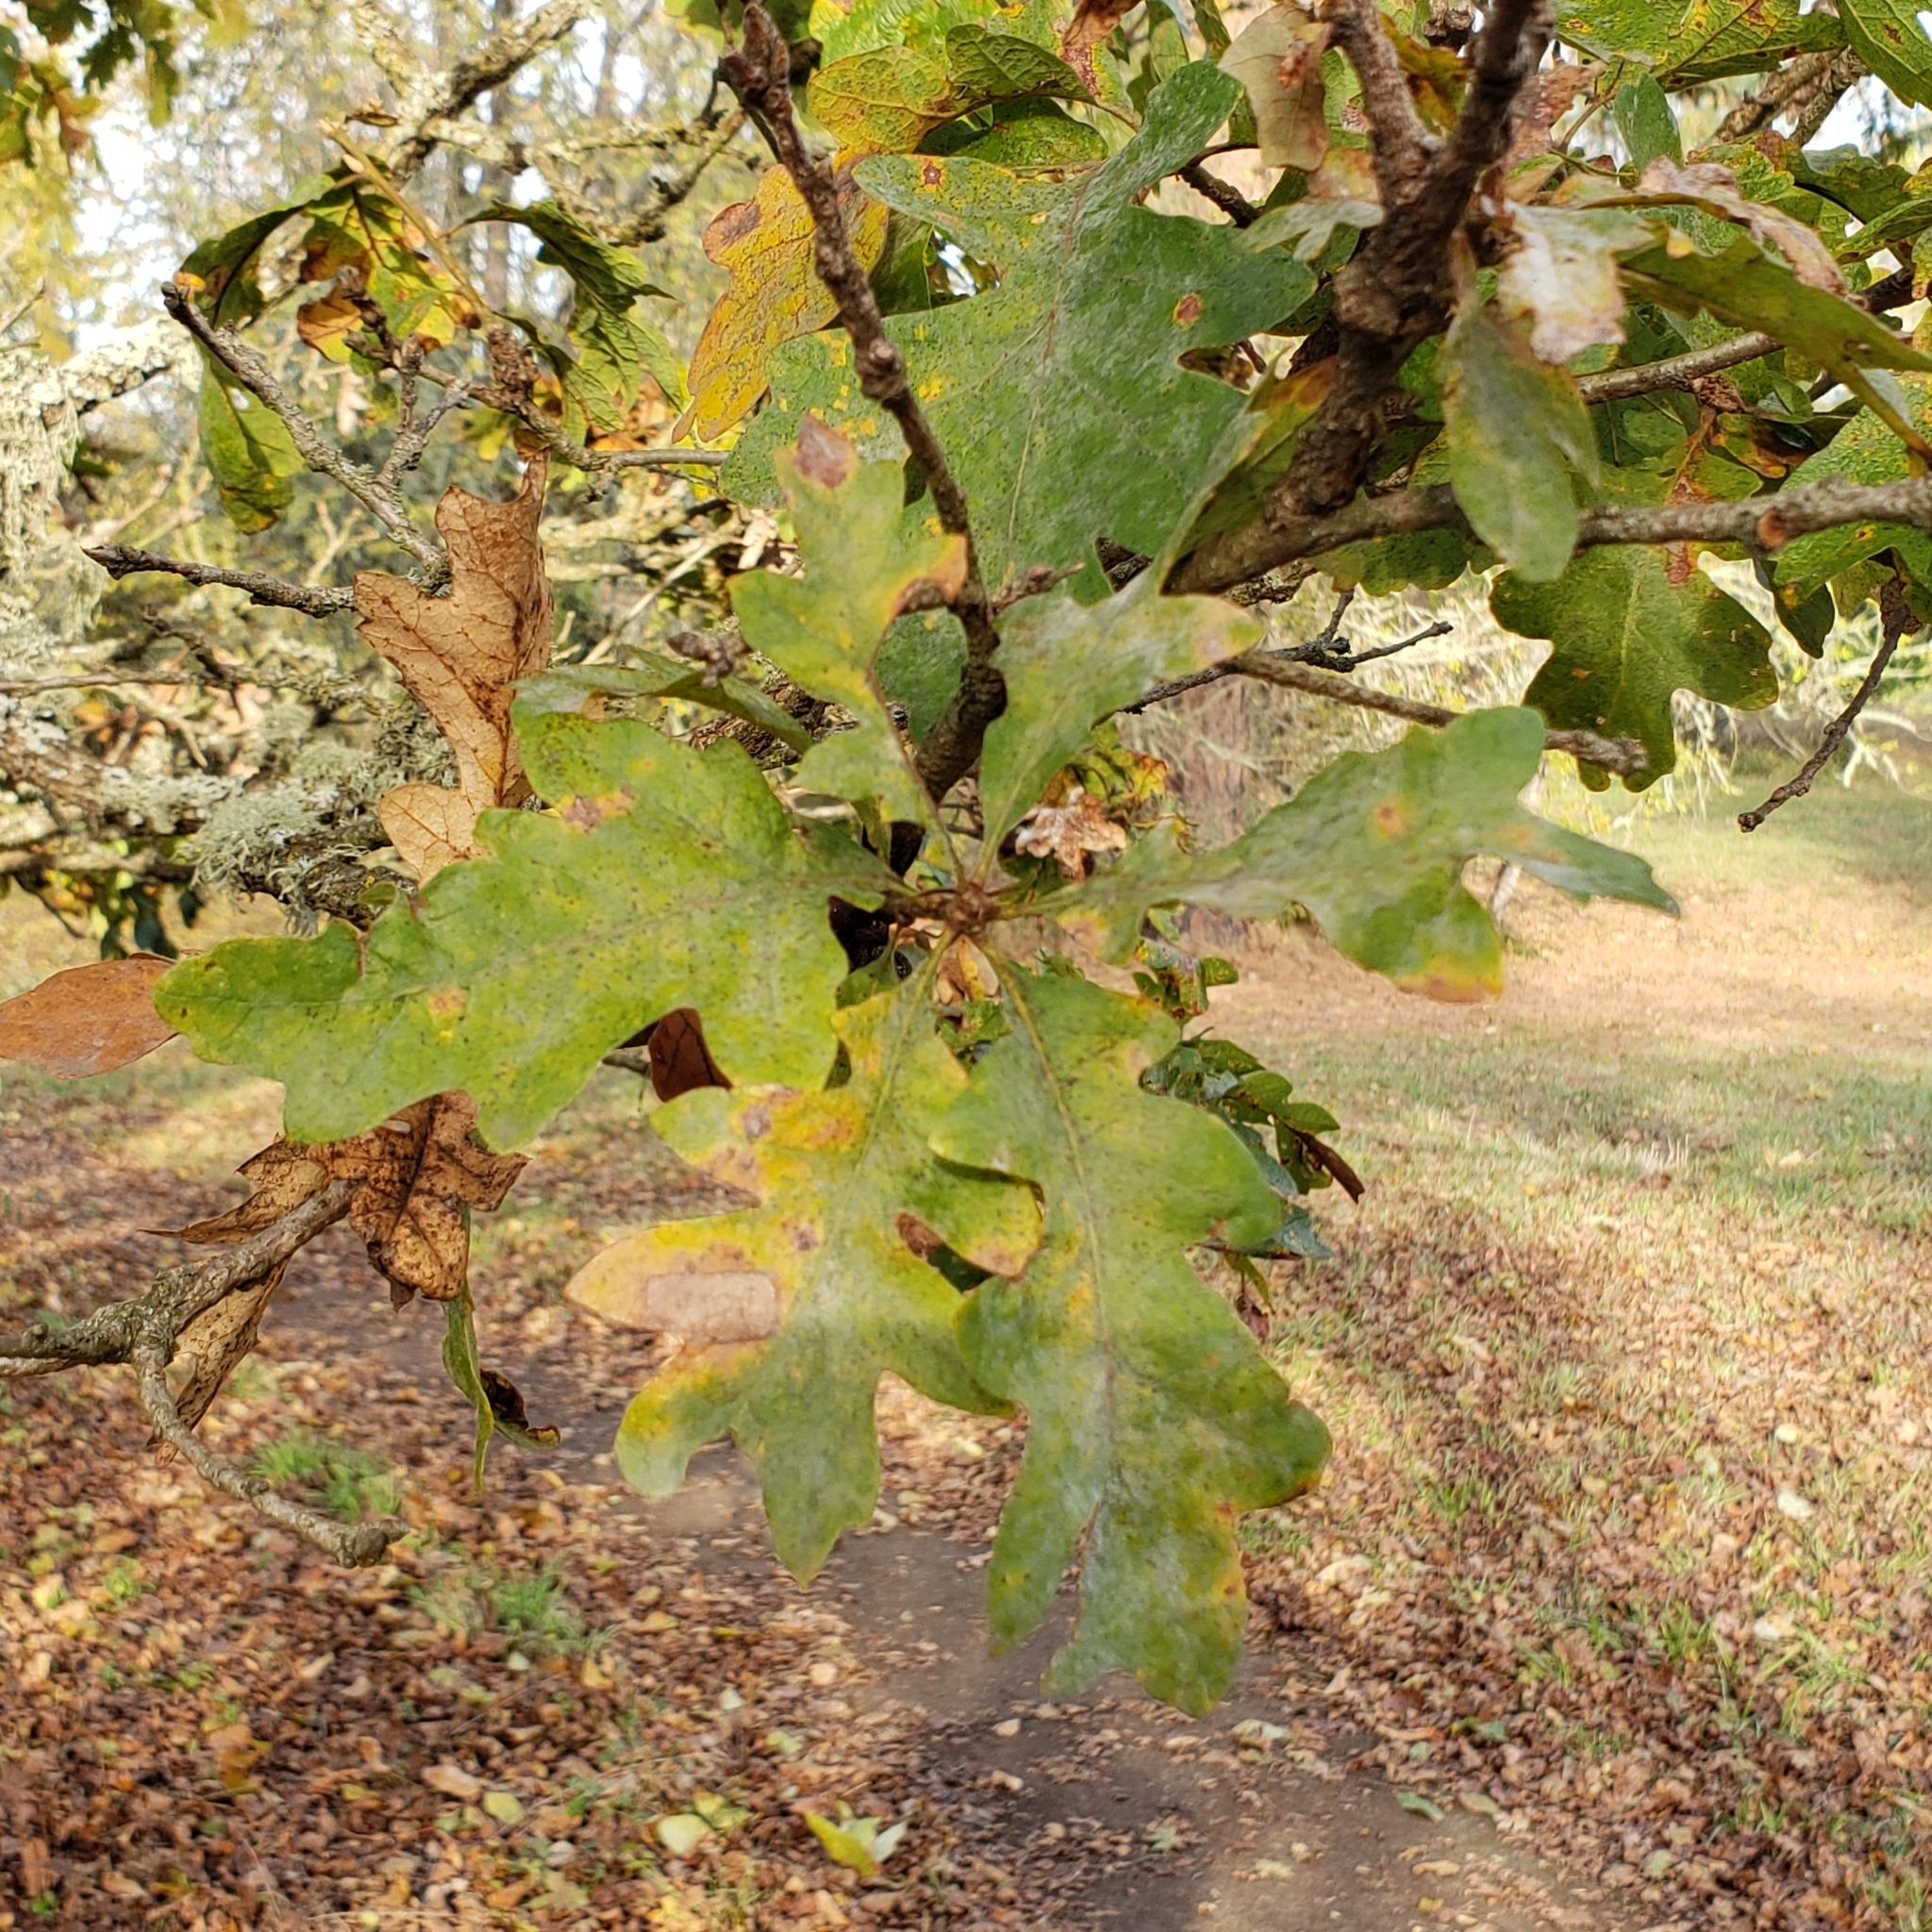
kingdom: Plantae
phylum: Tracheophyta
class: Magnoliopsida
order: Fagales
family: Fagaceae
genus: Quercus
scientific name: Quercus garryana
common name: Garry oak
